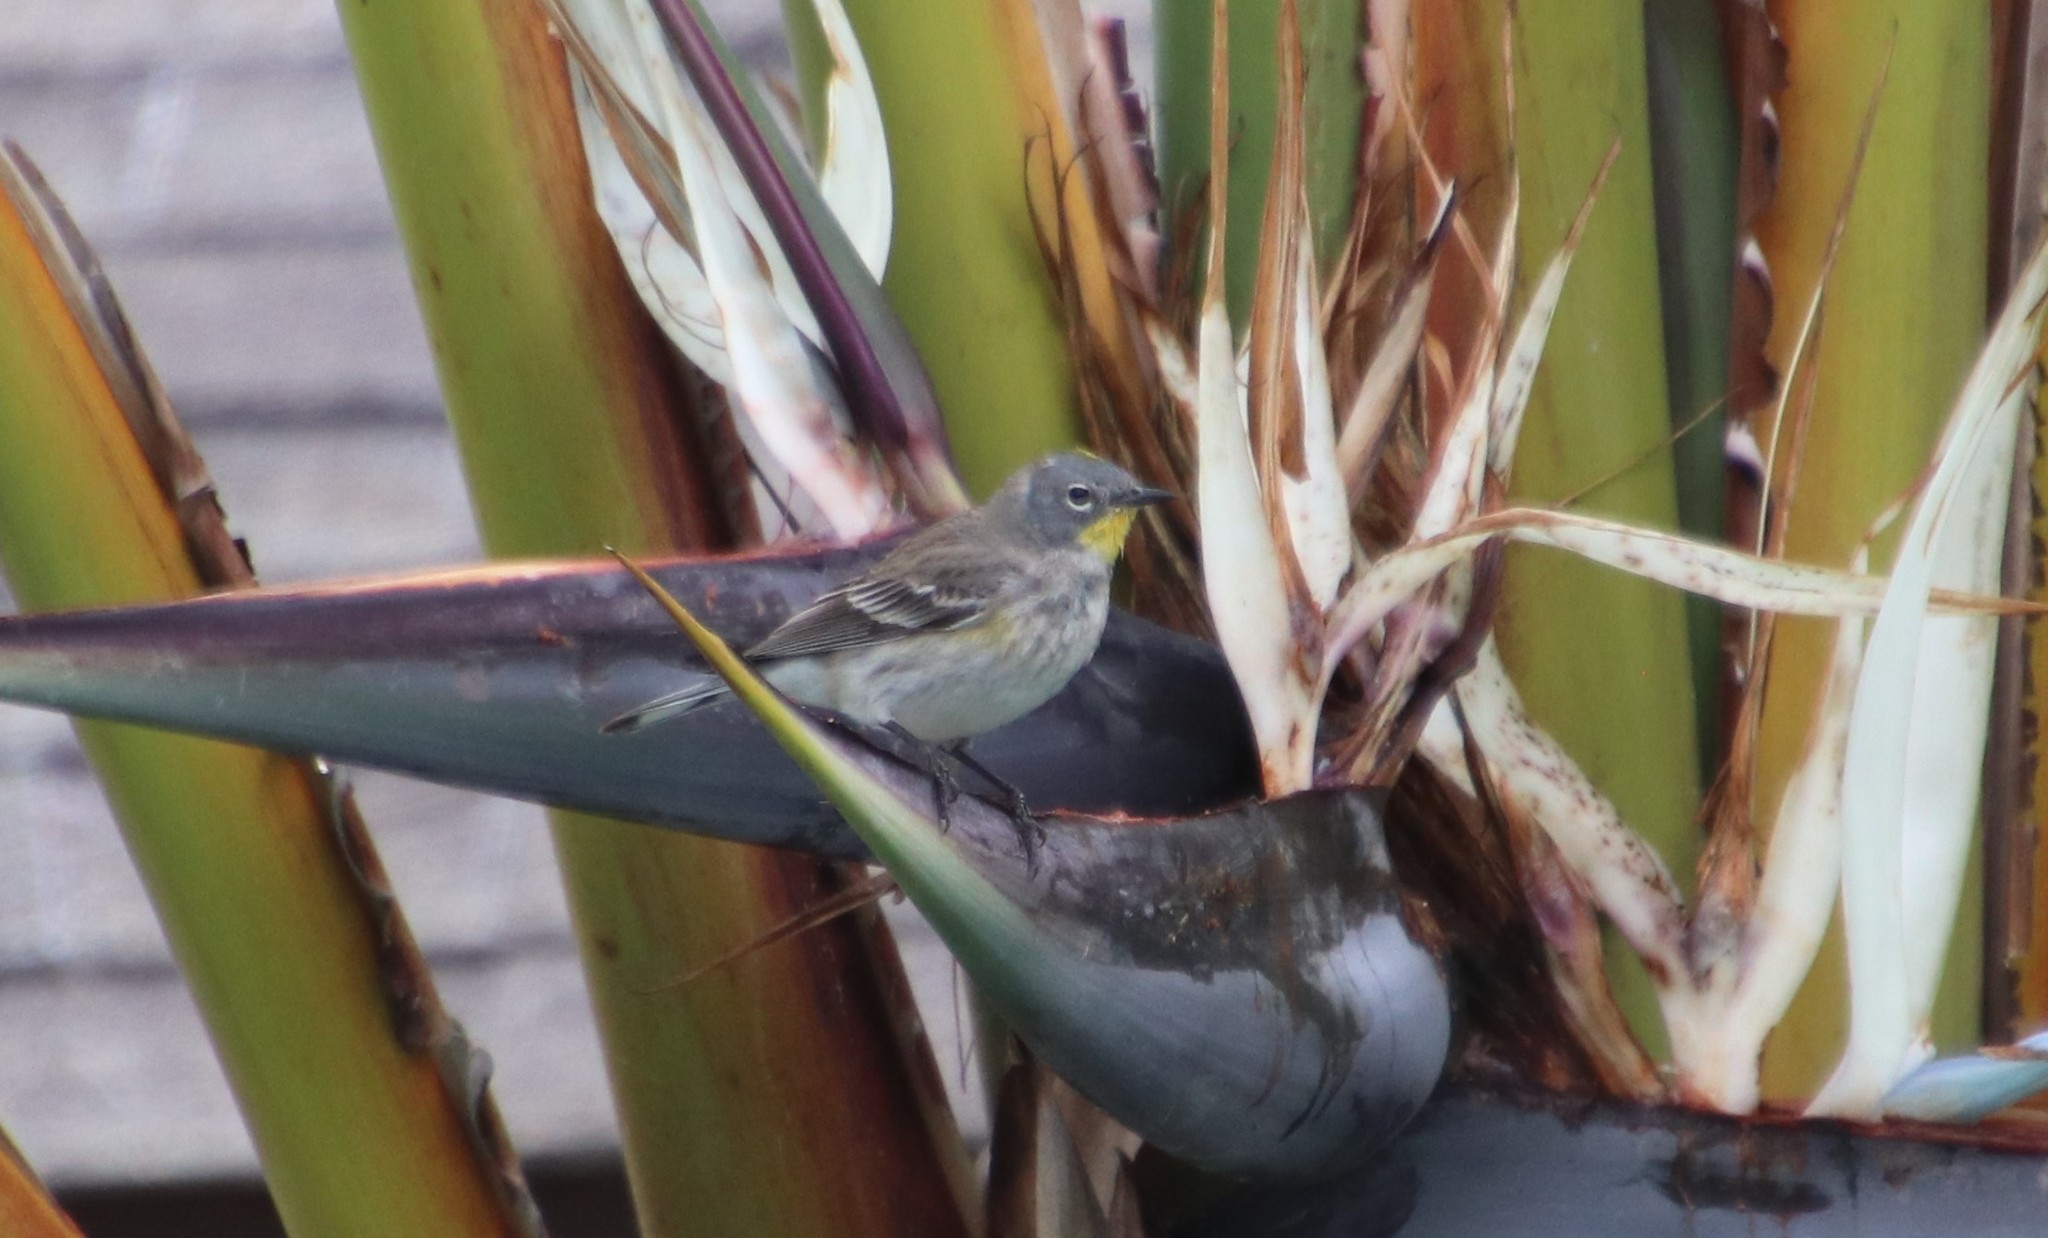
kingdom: Animalia
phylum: Chordata
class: Aves
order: Passeriformes
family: Parulidae
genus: Setophaga
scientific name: Setophaga auduboni
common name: Audubon's warbler
